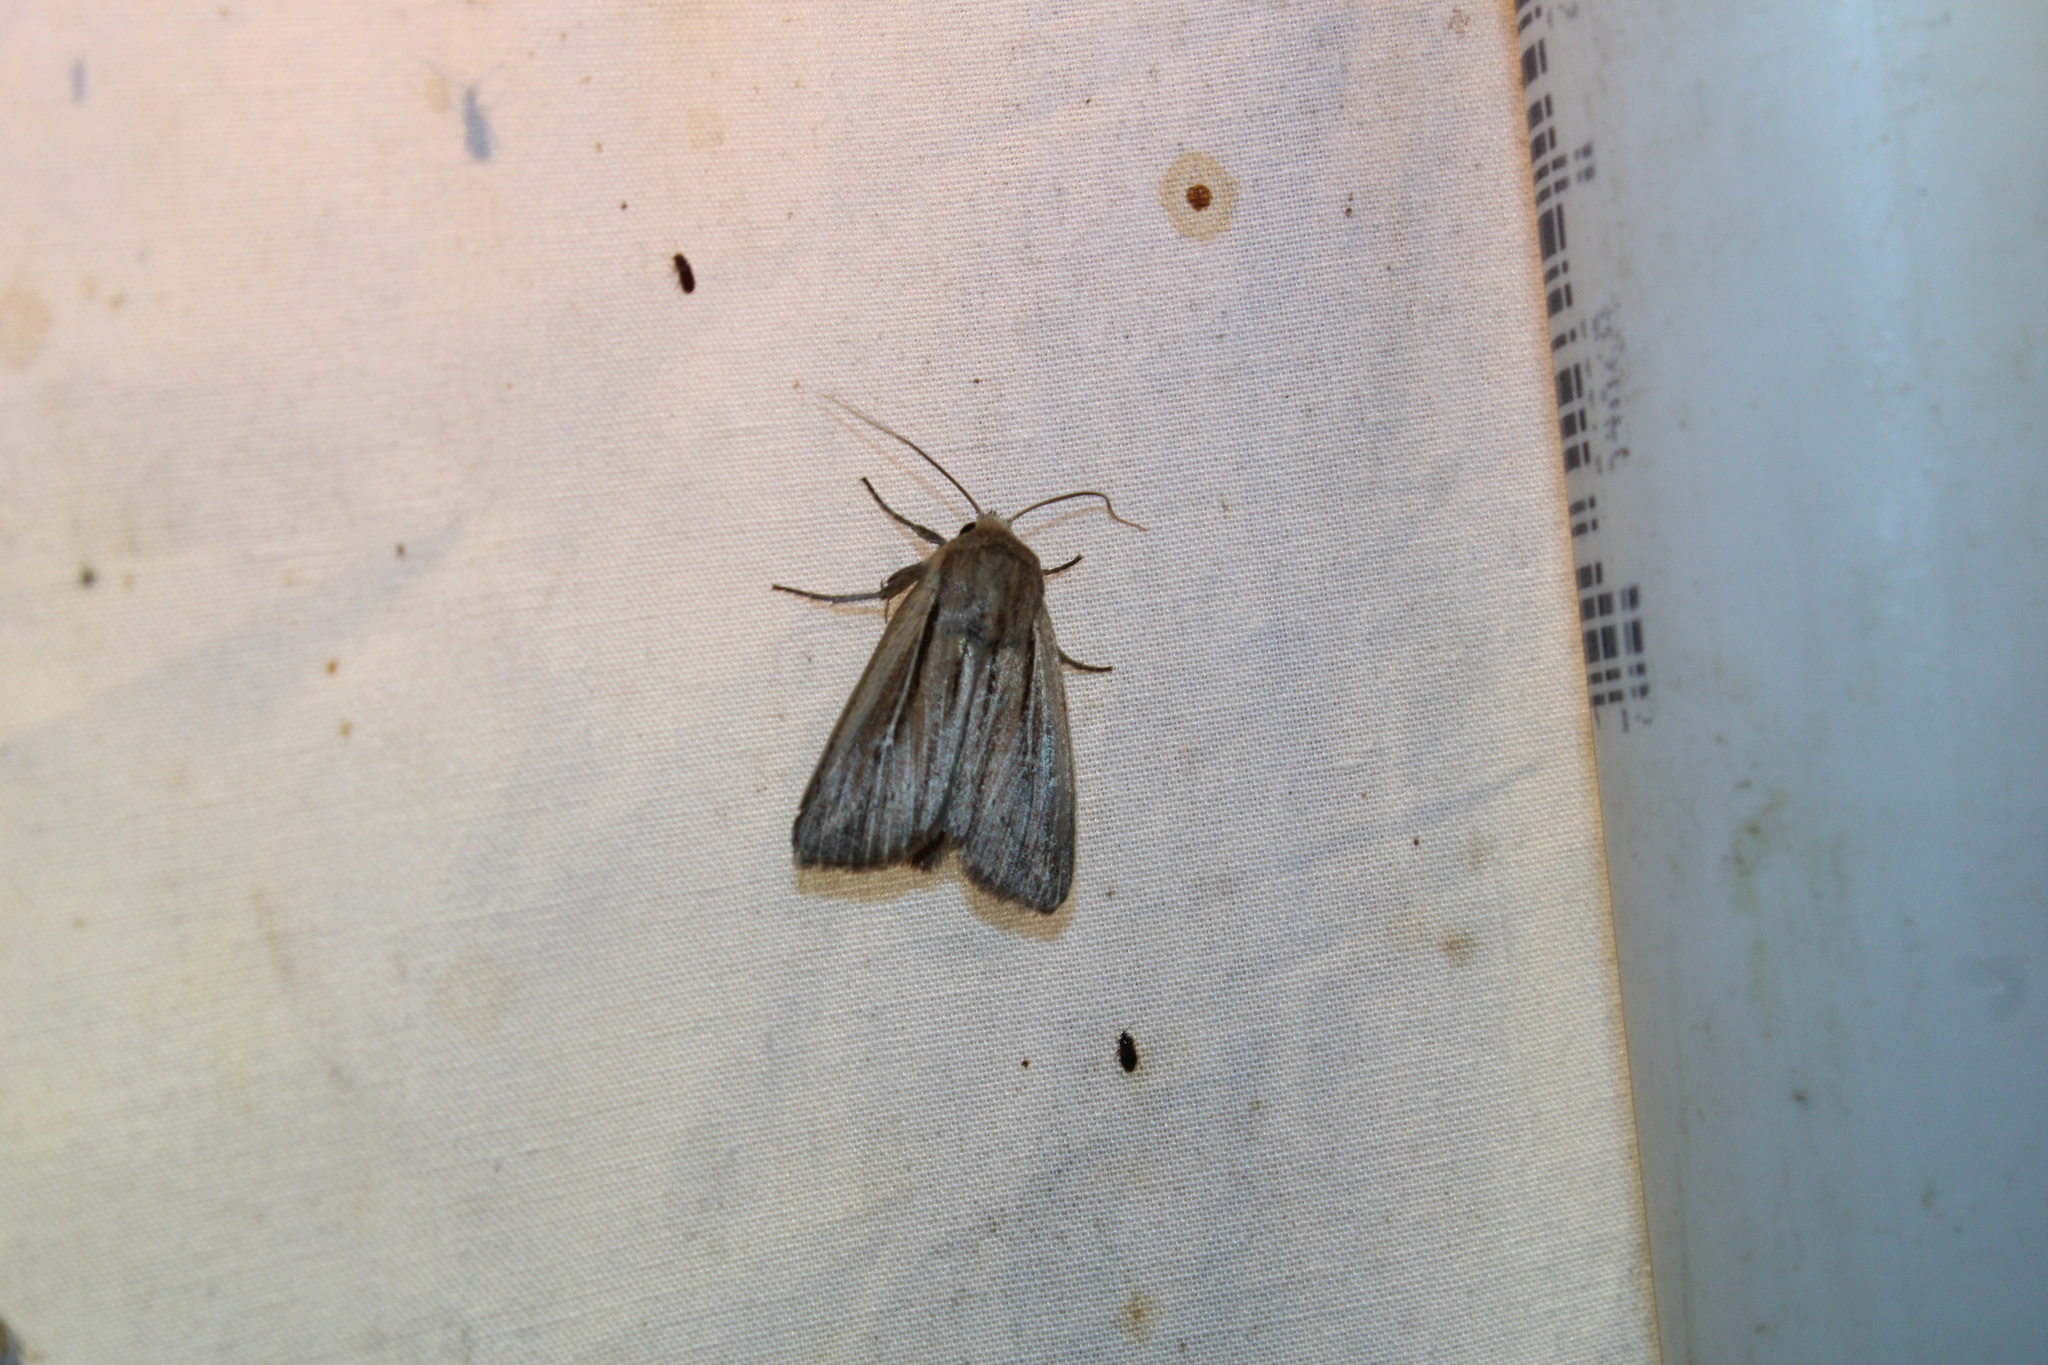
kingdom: Animalia
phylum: Arthropoda
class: Insecta
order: Lepidoptera
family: Noctuidae
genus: Leucania
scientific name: Leucania commoides
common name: Two-lined wainscot
